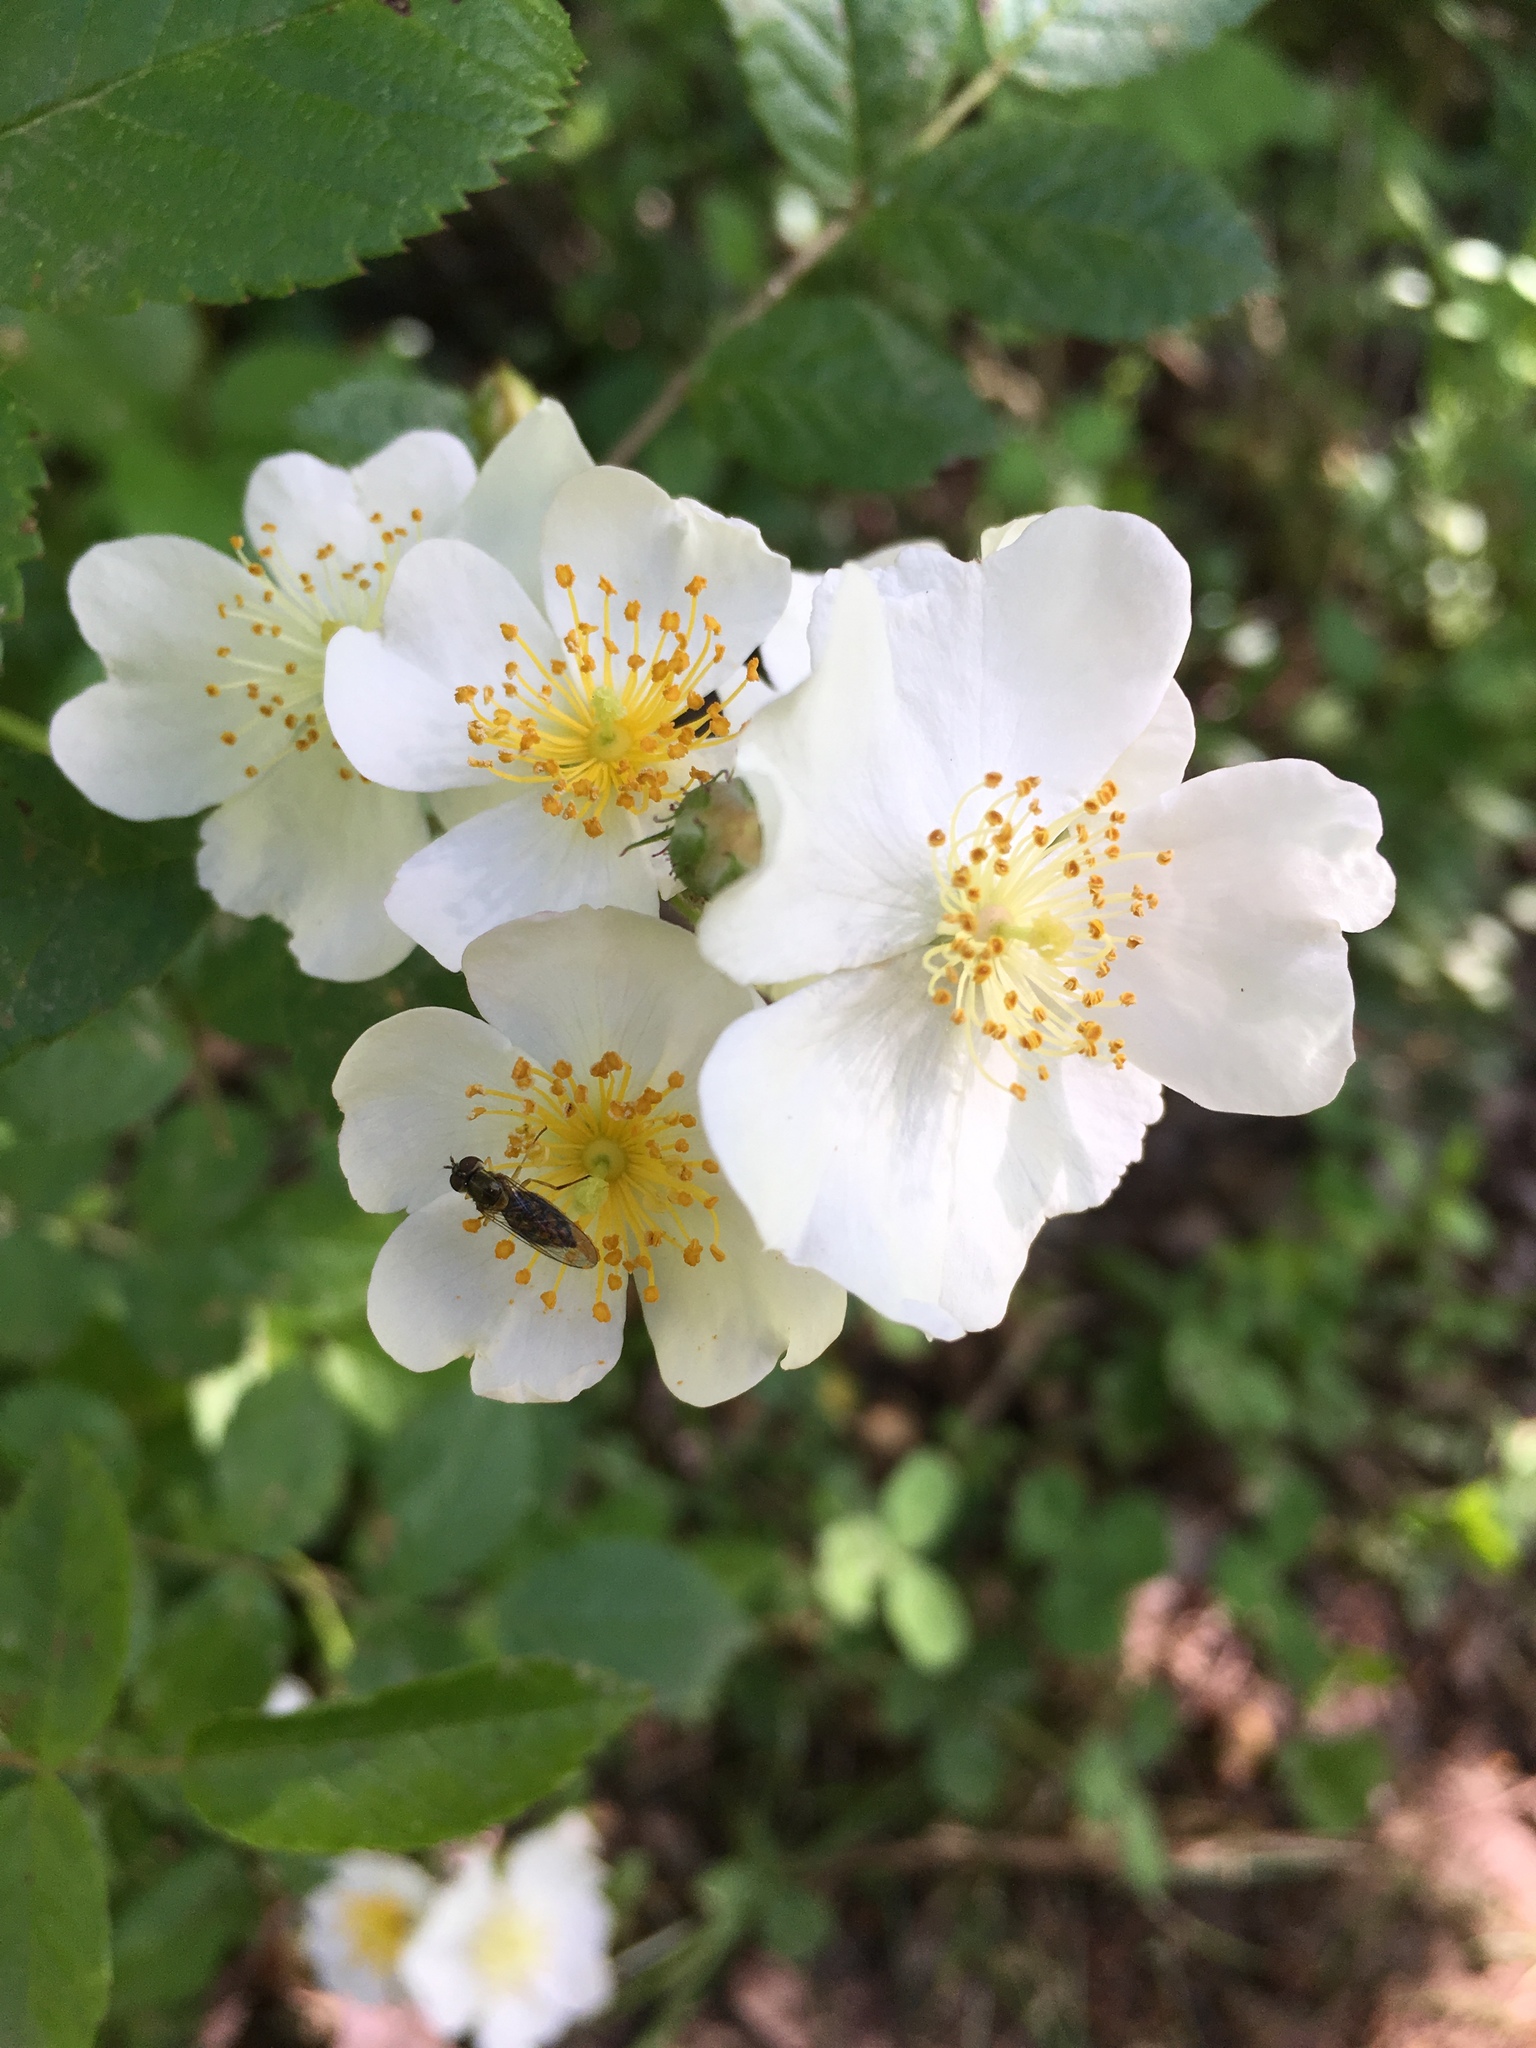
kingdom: Plantae
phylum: Tracheophyta
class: Magnoliopsida
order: Rosales
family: Rosaceae
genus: Rosa
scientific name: Rosa multiflora
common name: Multiflora rose
